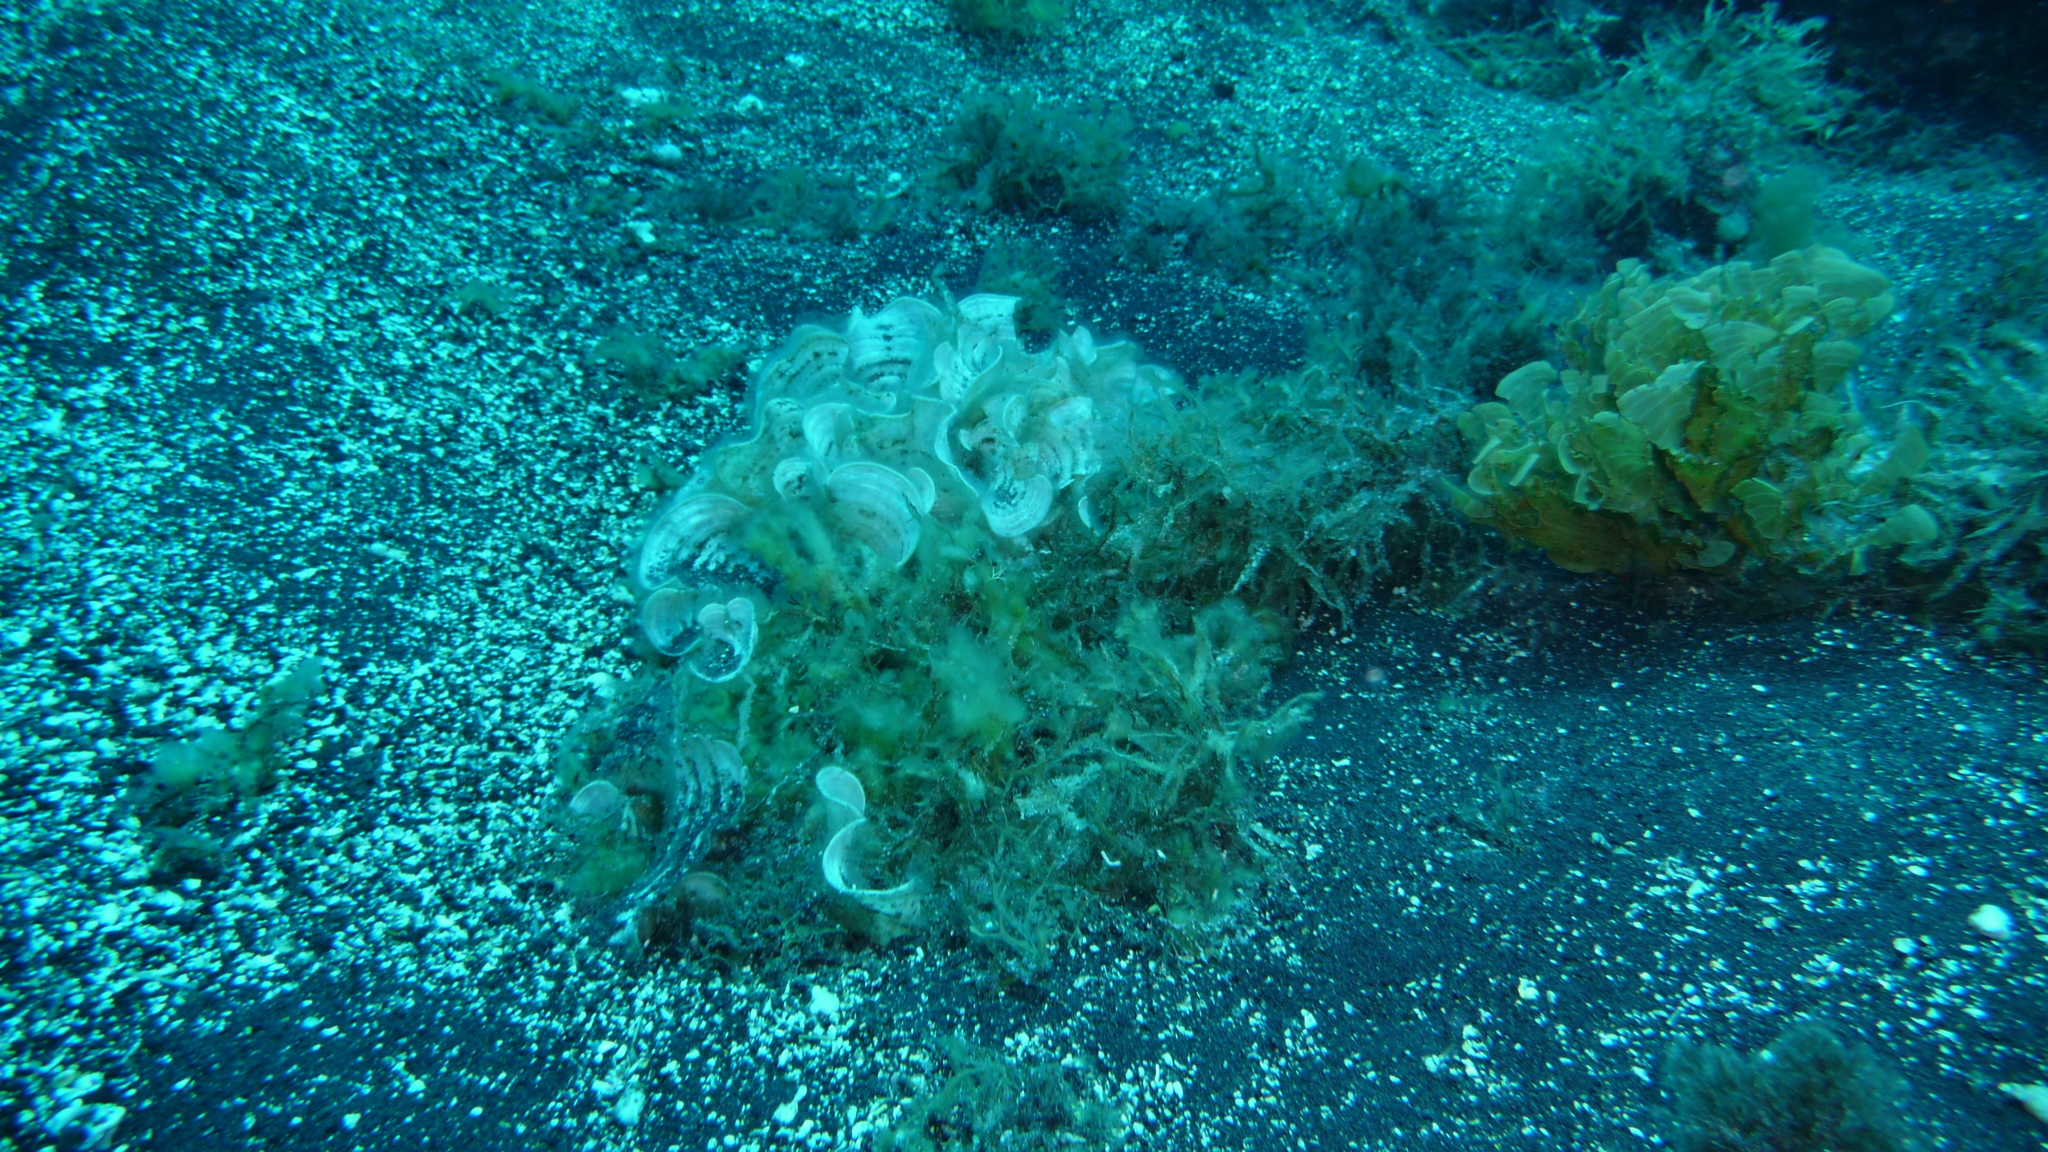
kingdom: Chromista
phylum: Ochrophyta
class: Phaeophyceae
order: Dictyotales
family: Dictyotaceae
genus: Padina
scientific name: Padina pavonica
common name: Turkey feather alga
